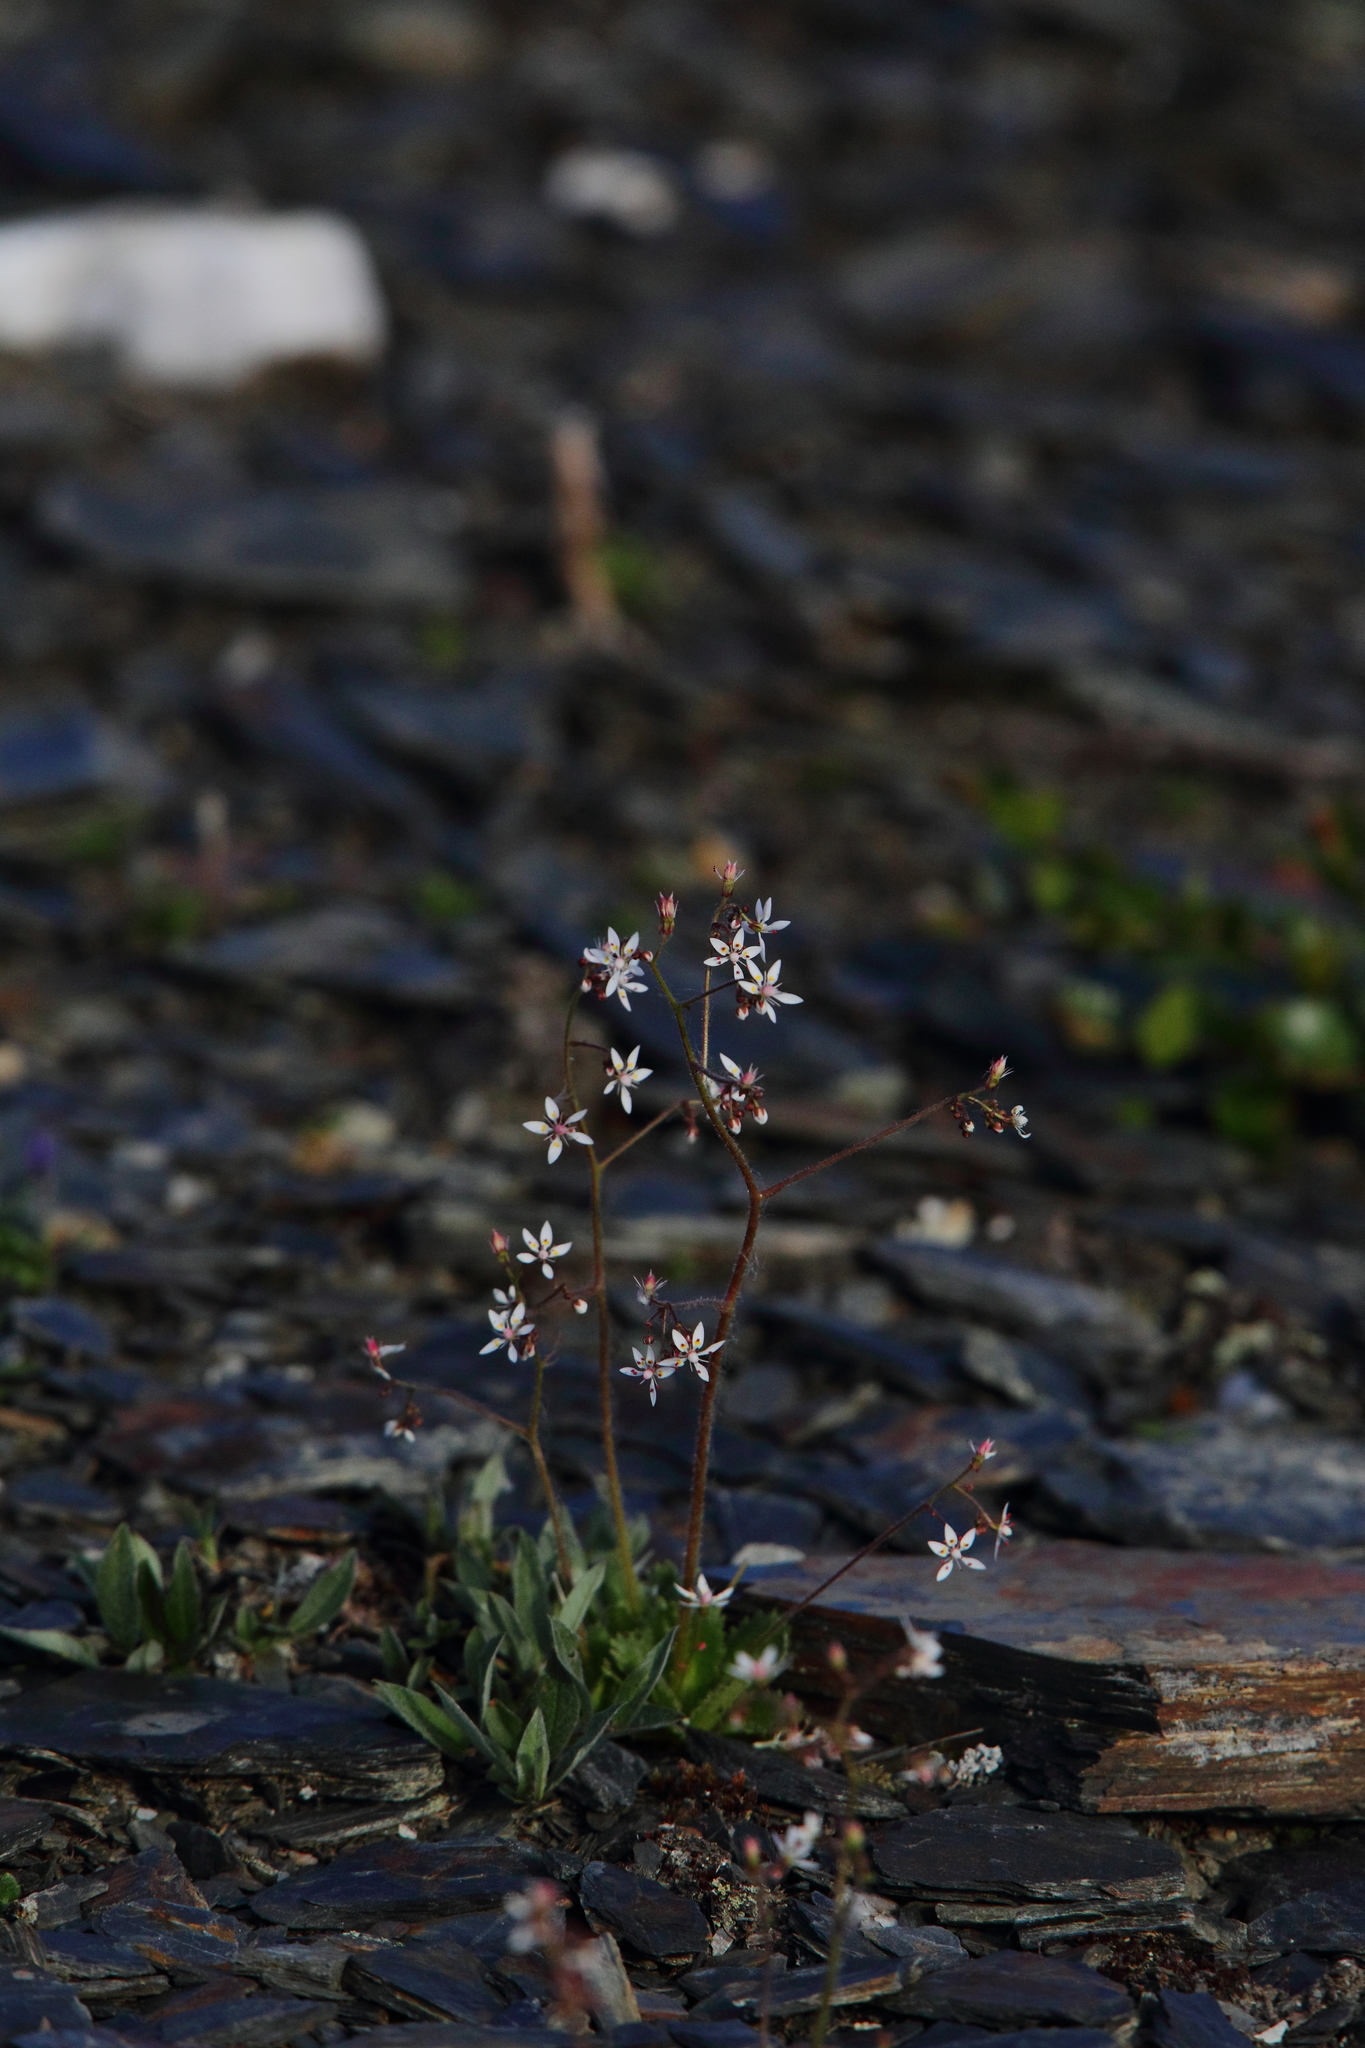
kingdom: Plantae
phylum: Tracheophyta
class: Magnoliopsida
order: Saxifragales
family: Saxifragaceae
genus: Micranthes
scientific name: Micranthes ferruginea
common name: Rusty saxifrage
